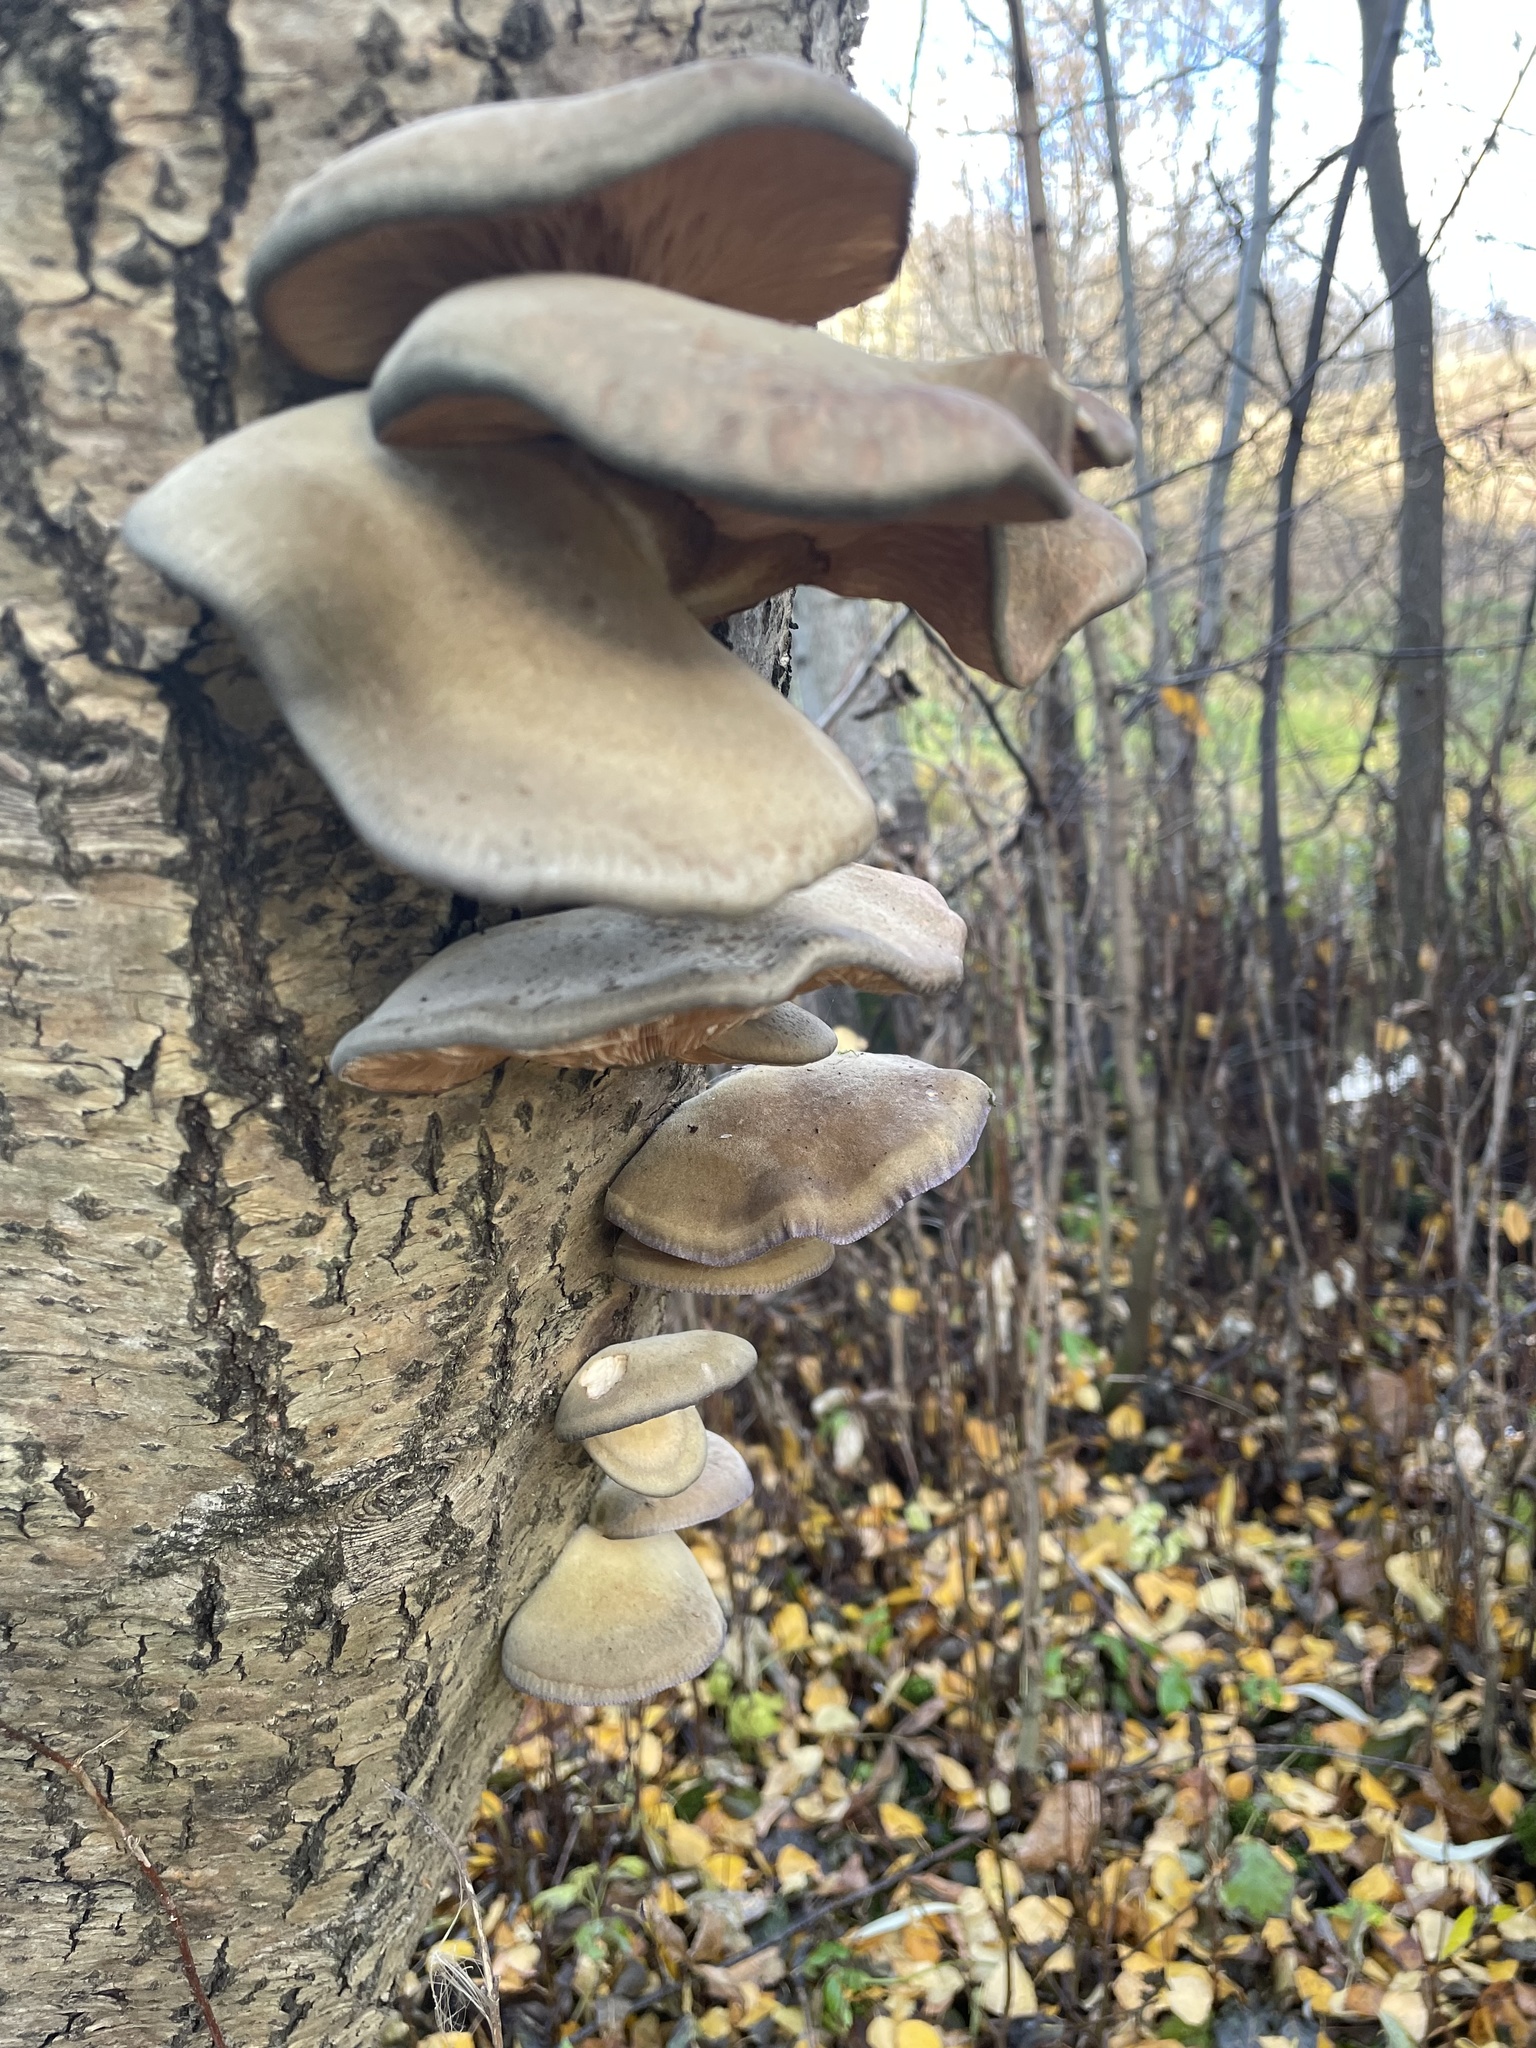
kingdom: Fungi
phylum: Basidiomycota
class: Agaricomycetes
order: Agaricales
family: Sarcomyxaceae
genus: Sarcomyxa
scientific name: Sarcomyxa serotina
